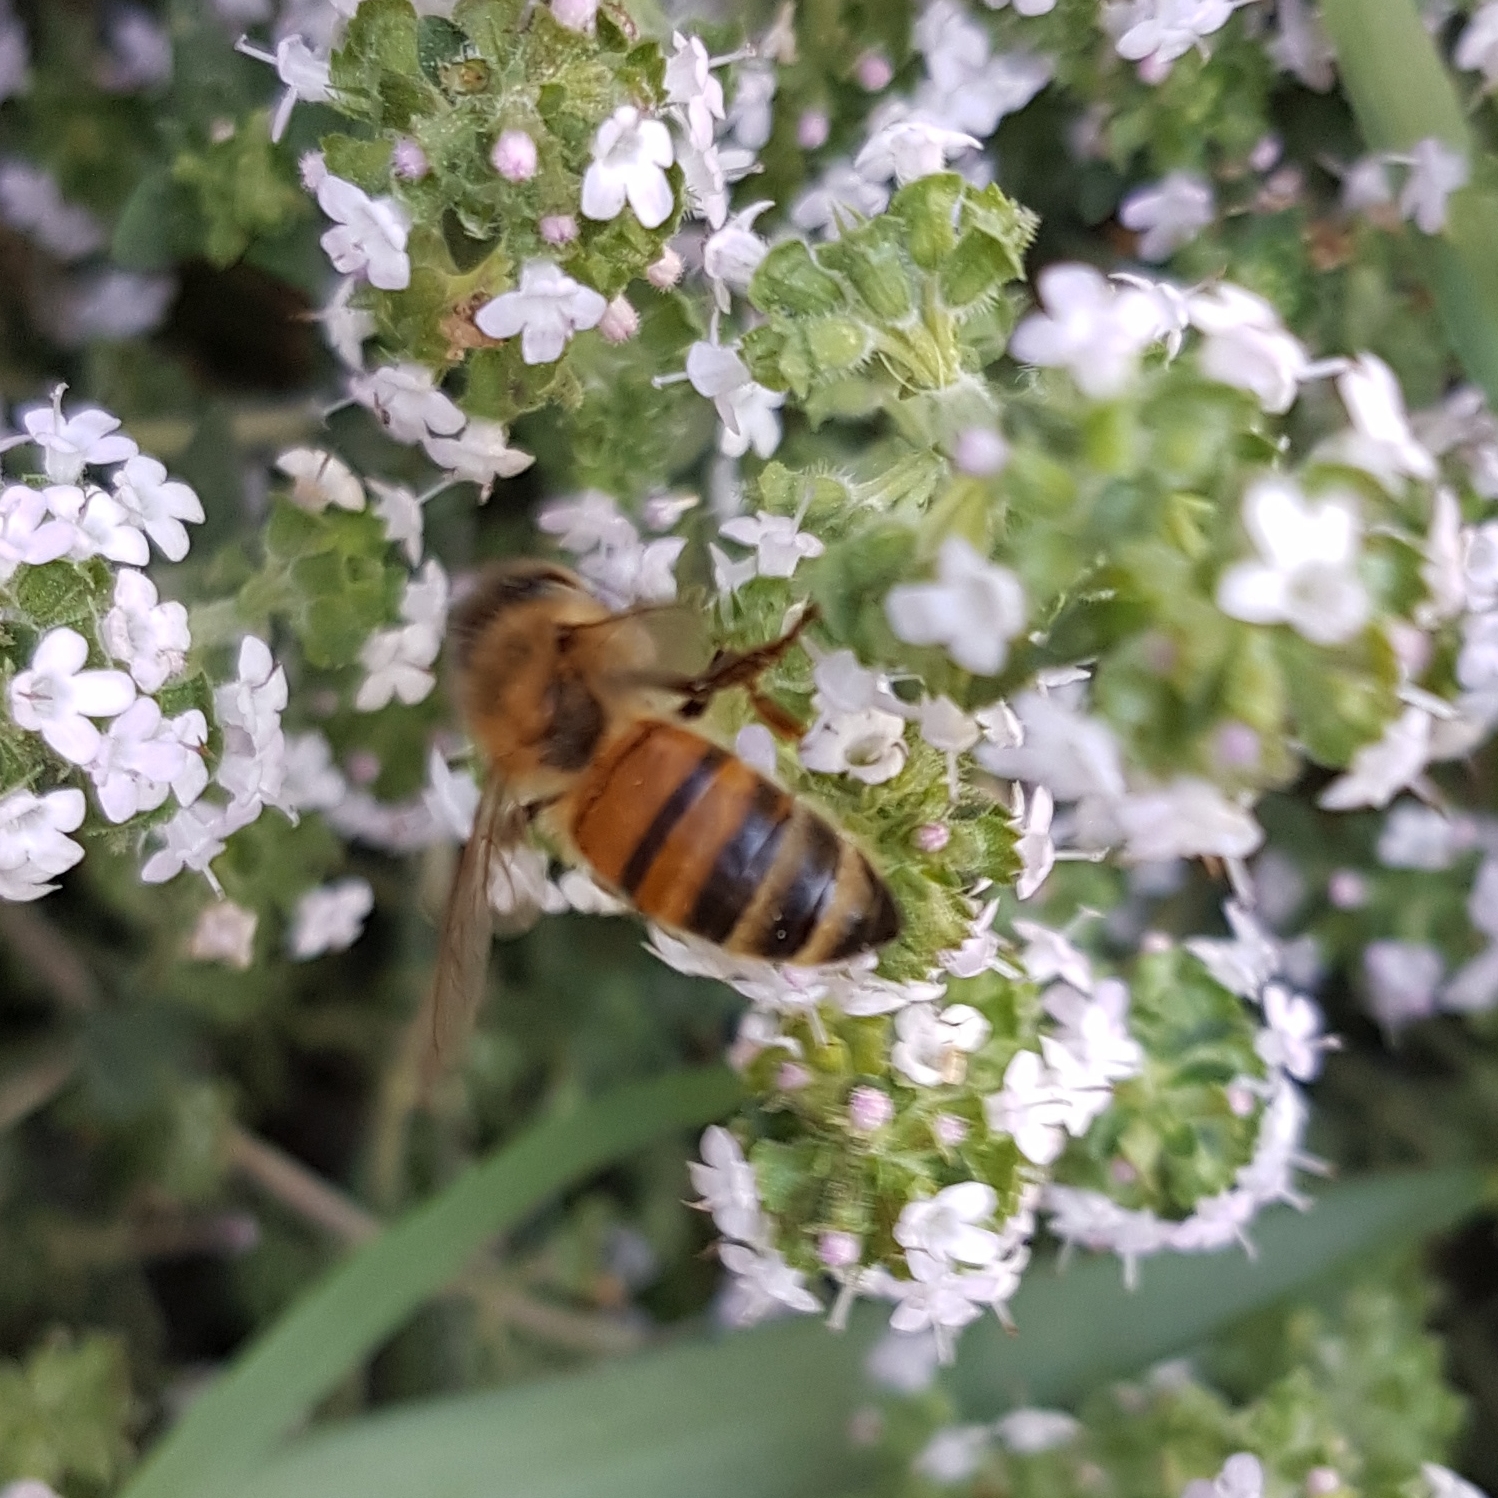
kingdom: Animalia
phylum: Arthropoda
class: Insecta
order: Hymenoptera
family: Apidae
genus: Apis
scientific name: Apis mellifera
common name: Honey bee
